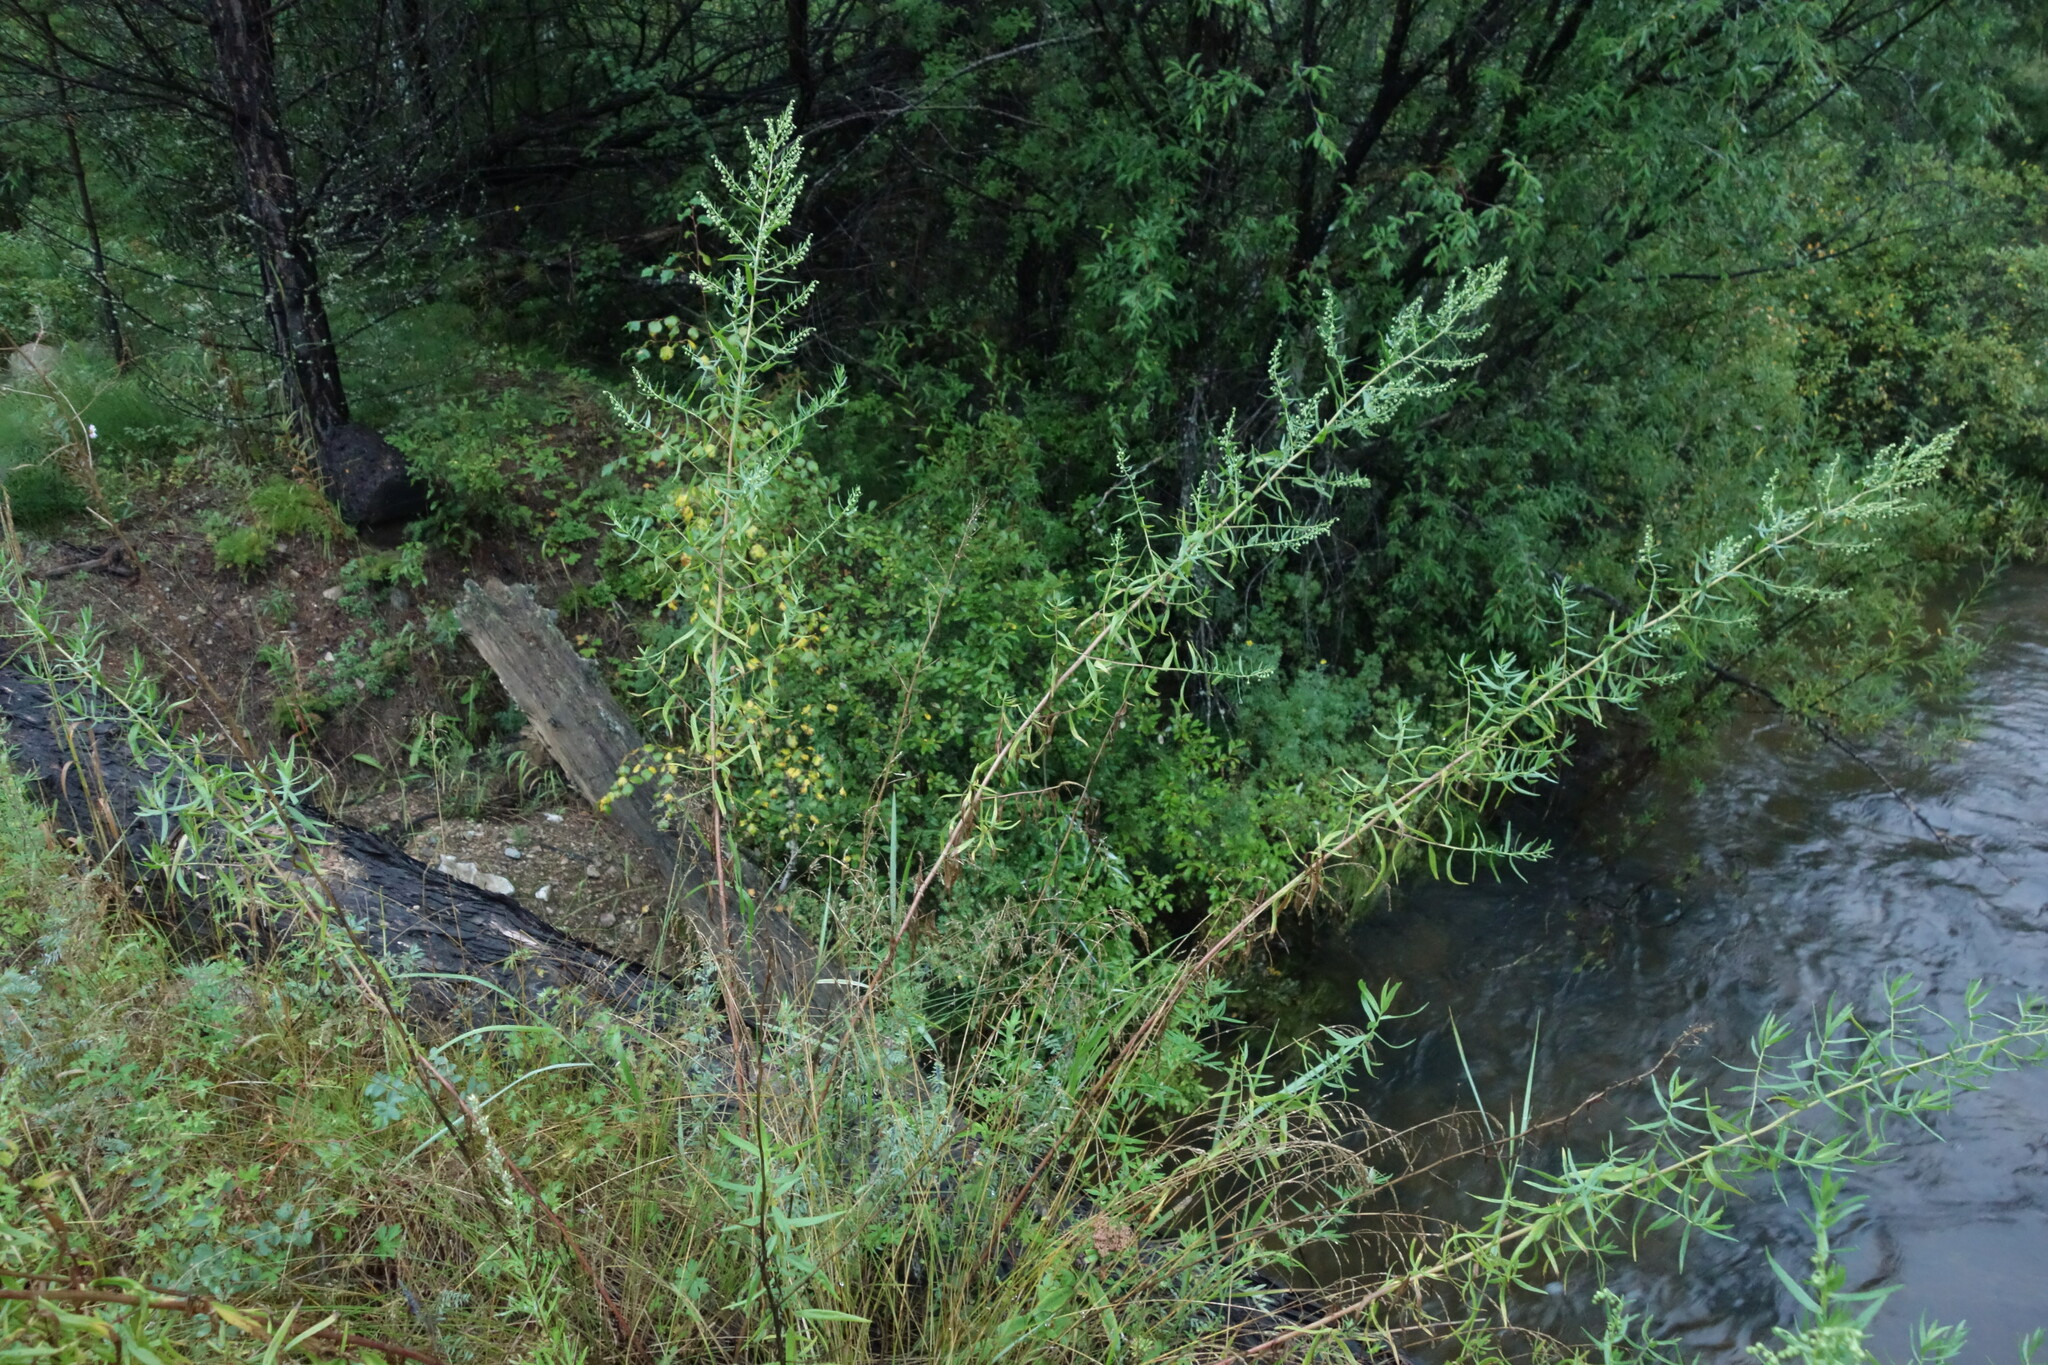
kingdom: Plantae
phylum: Tracheophyta
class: Magnoliopsida
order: Asterales
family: Asteraceae
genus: Artemisia
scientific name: Artemisia dracunculus
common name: Tarragon
